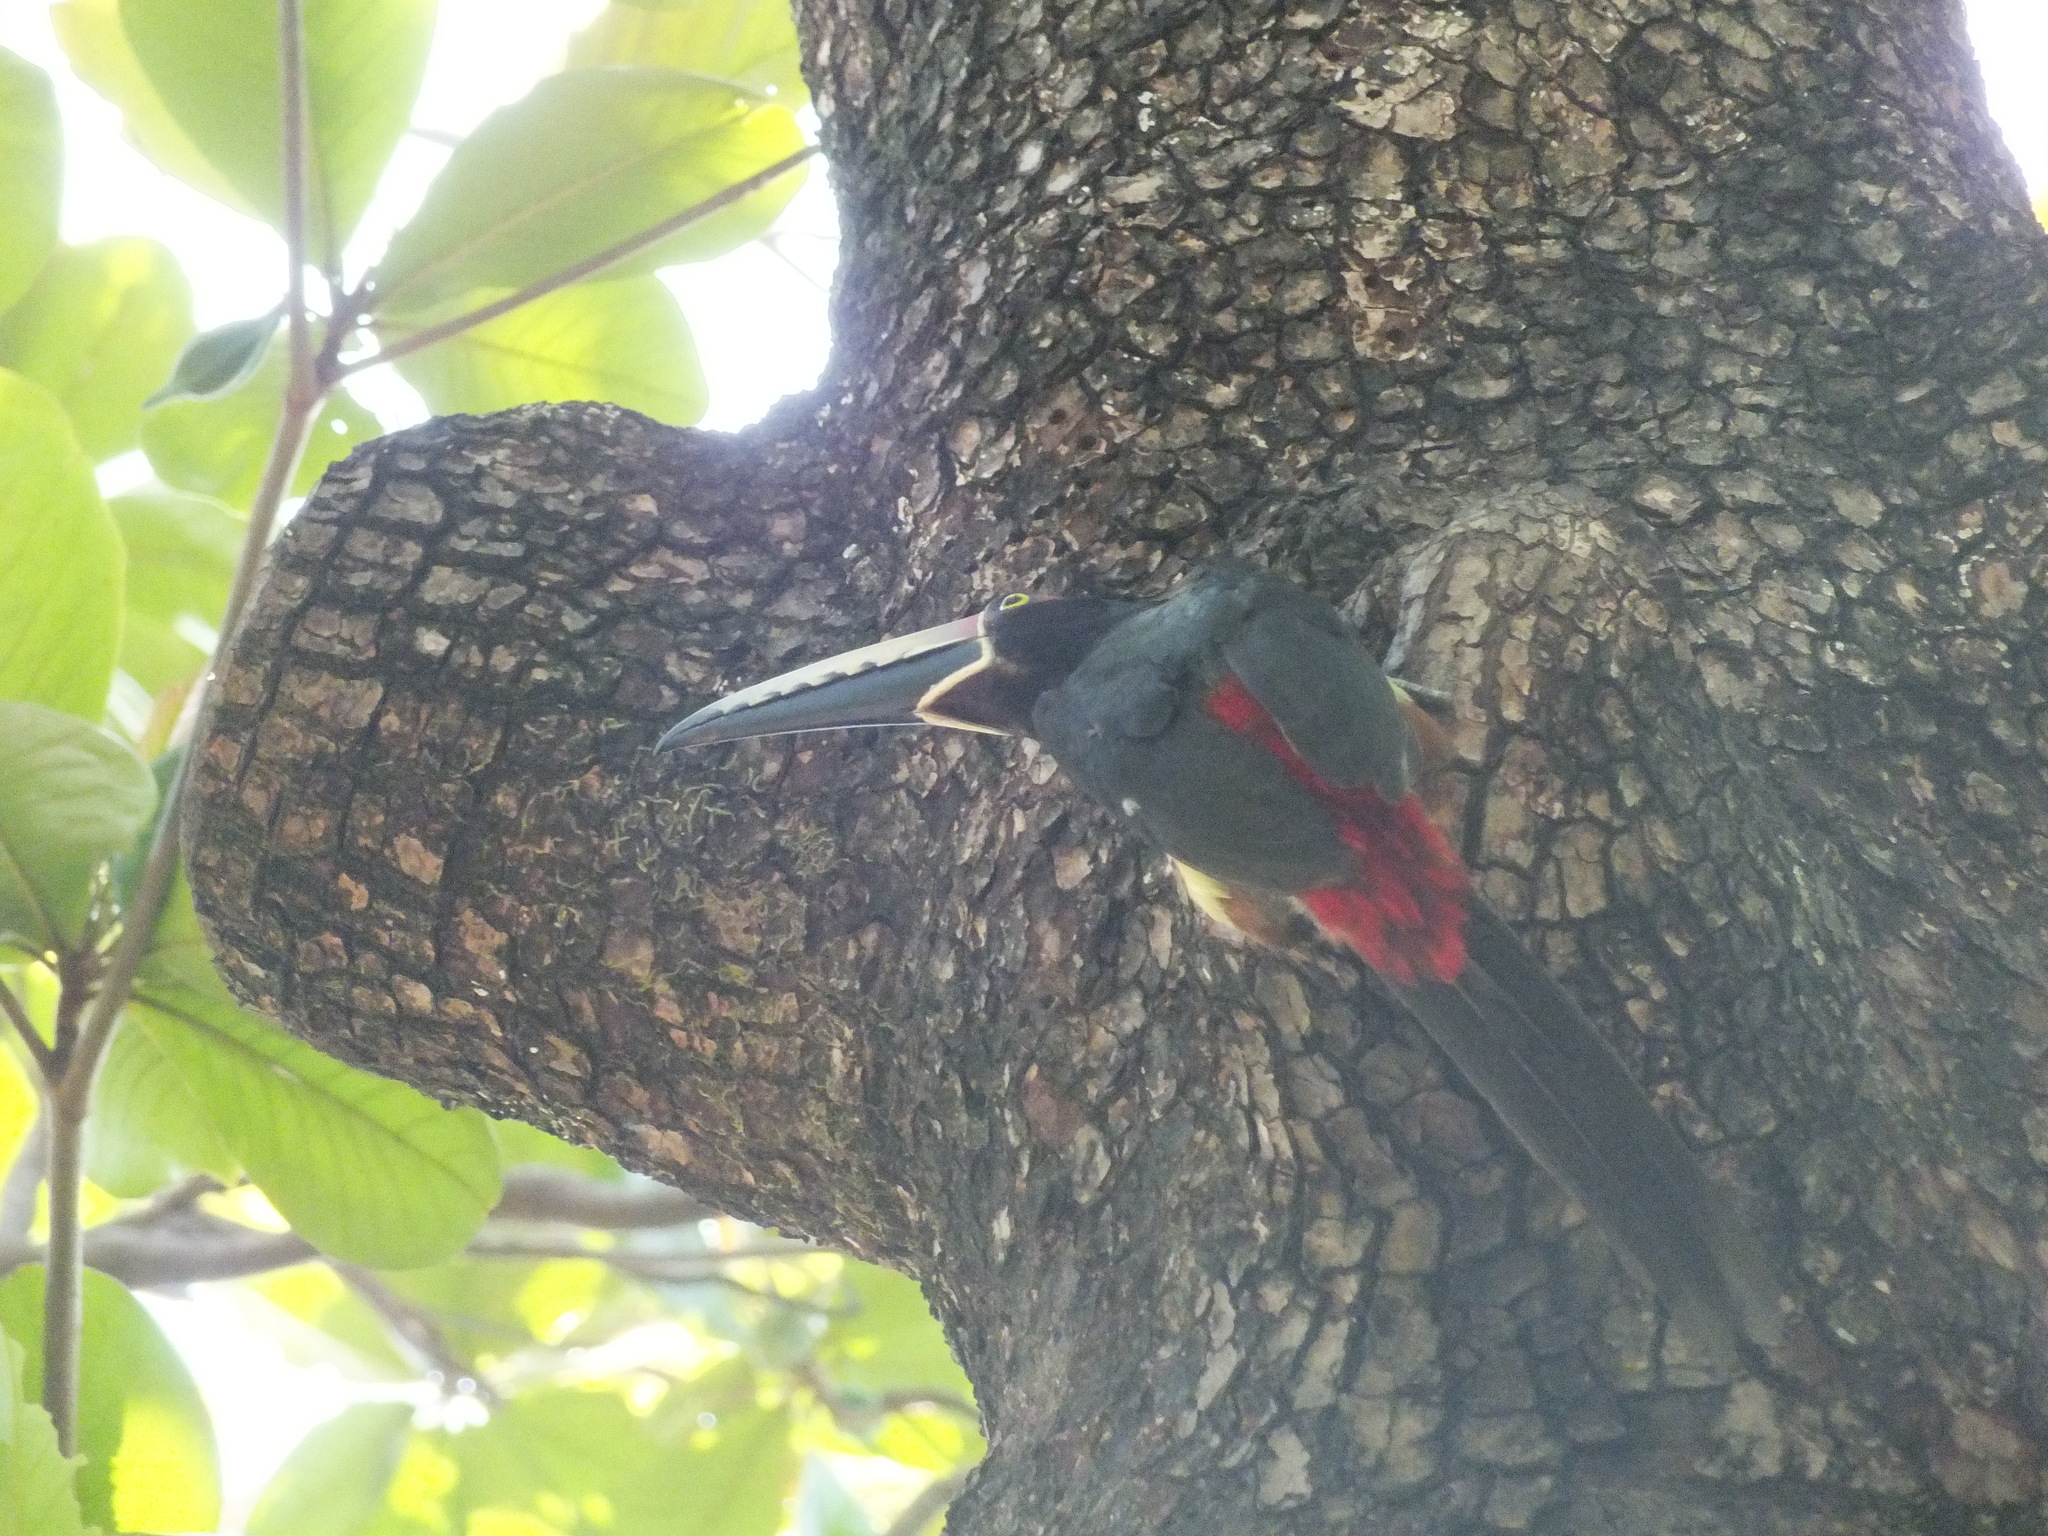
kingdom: Animalia
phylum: Chordata
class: Aves
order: Piciformes
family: Ramphastidae
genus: Pteroglossus
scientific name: Pteroglossus torquatus
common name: Collared aracari
